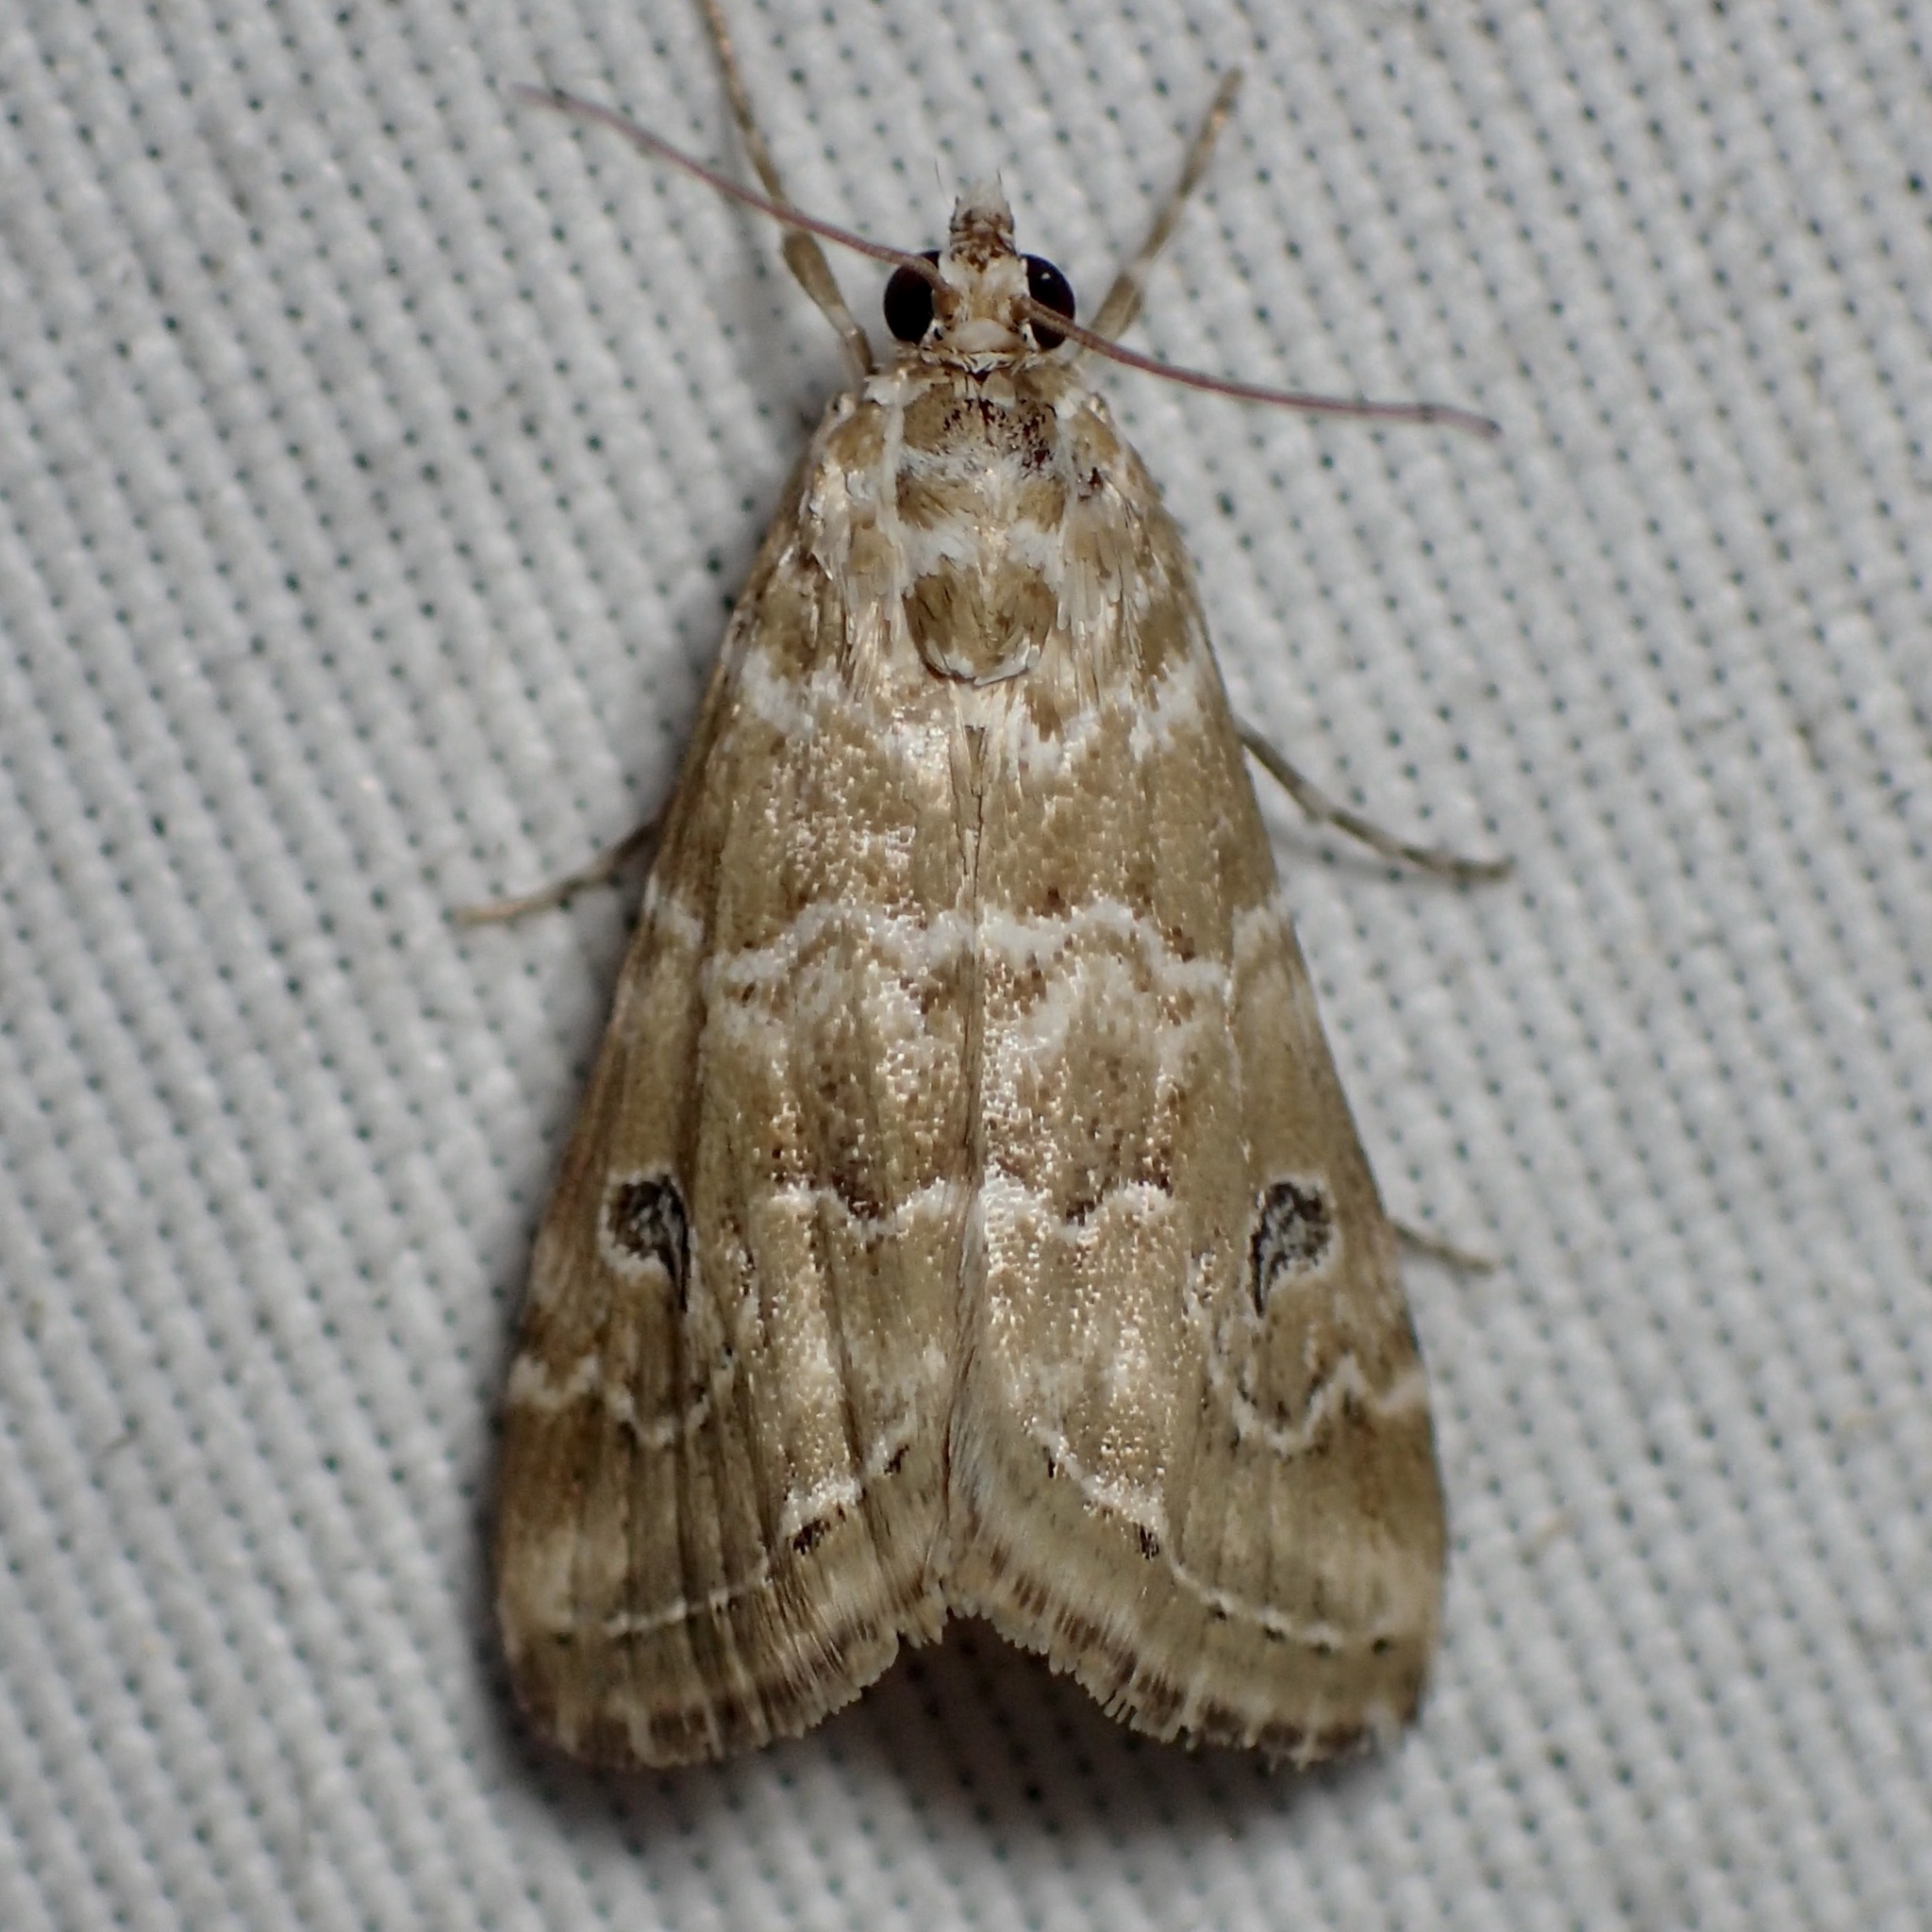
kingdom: Animalia
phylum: Arthropoda
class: Insecta
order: Lepidoptera
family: Crambidae
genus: Hellula
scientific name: Hellula rogatalis
